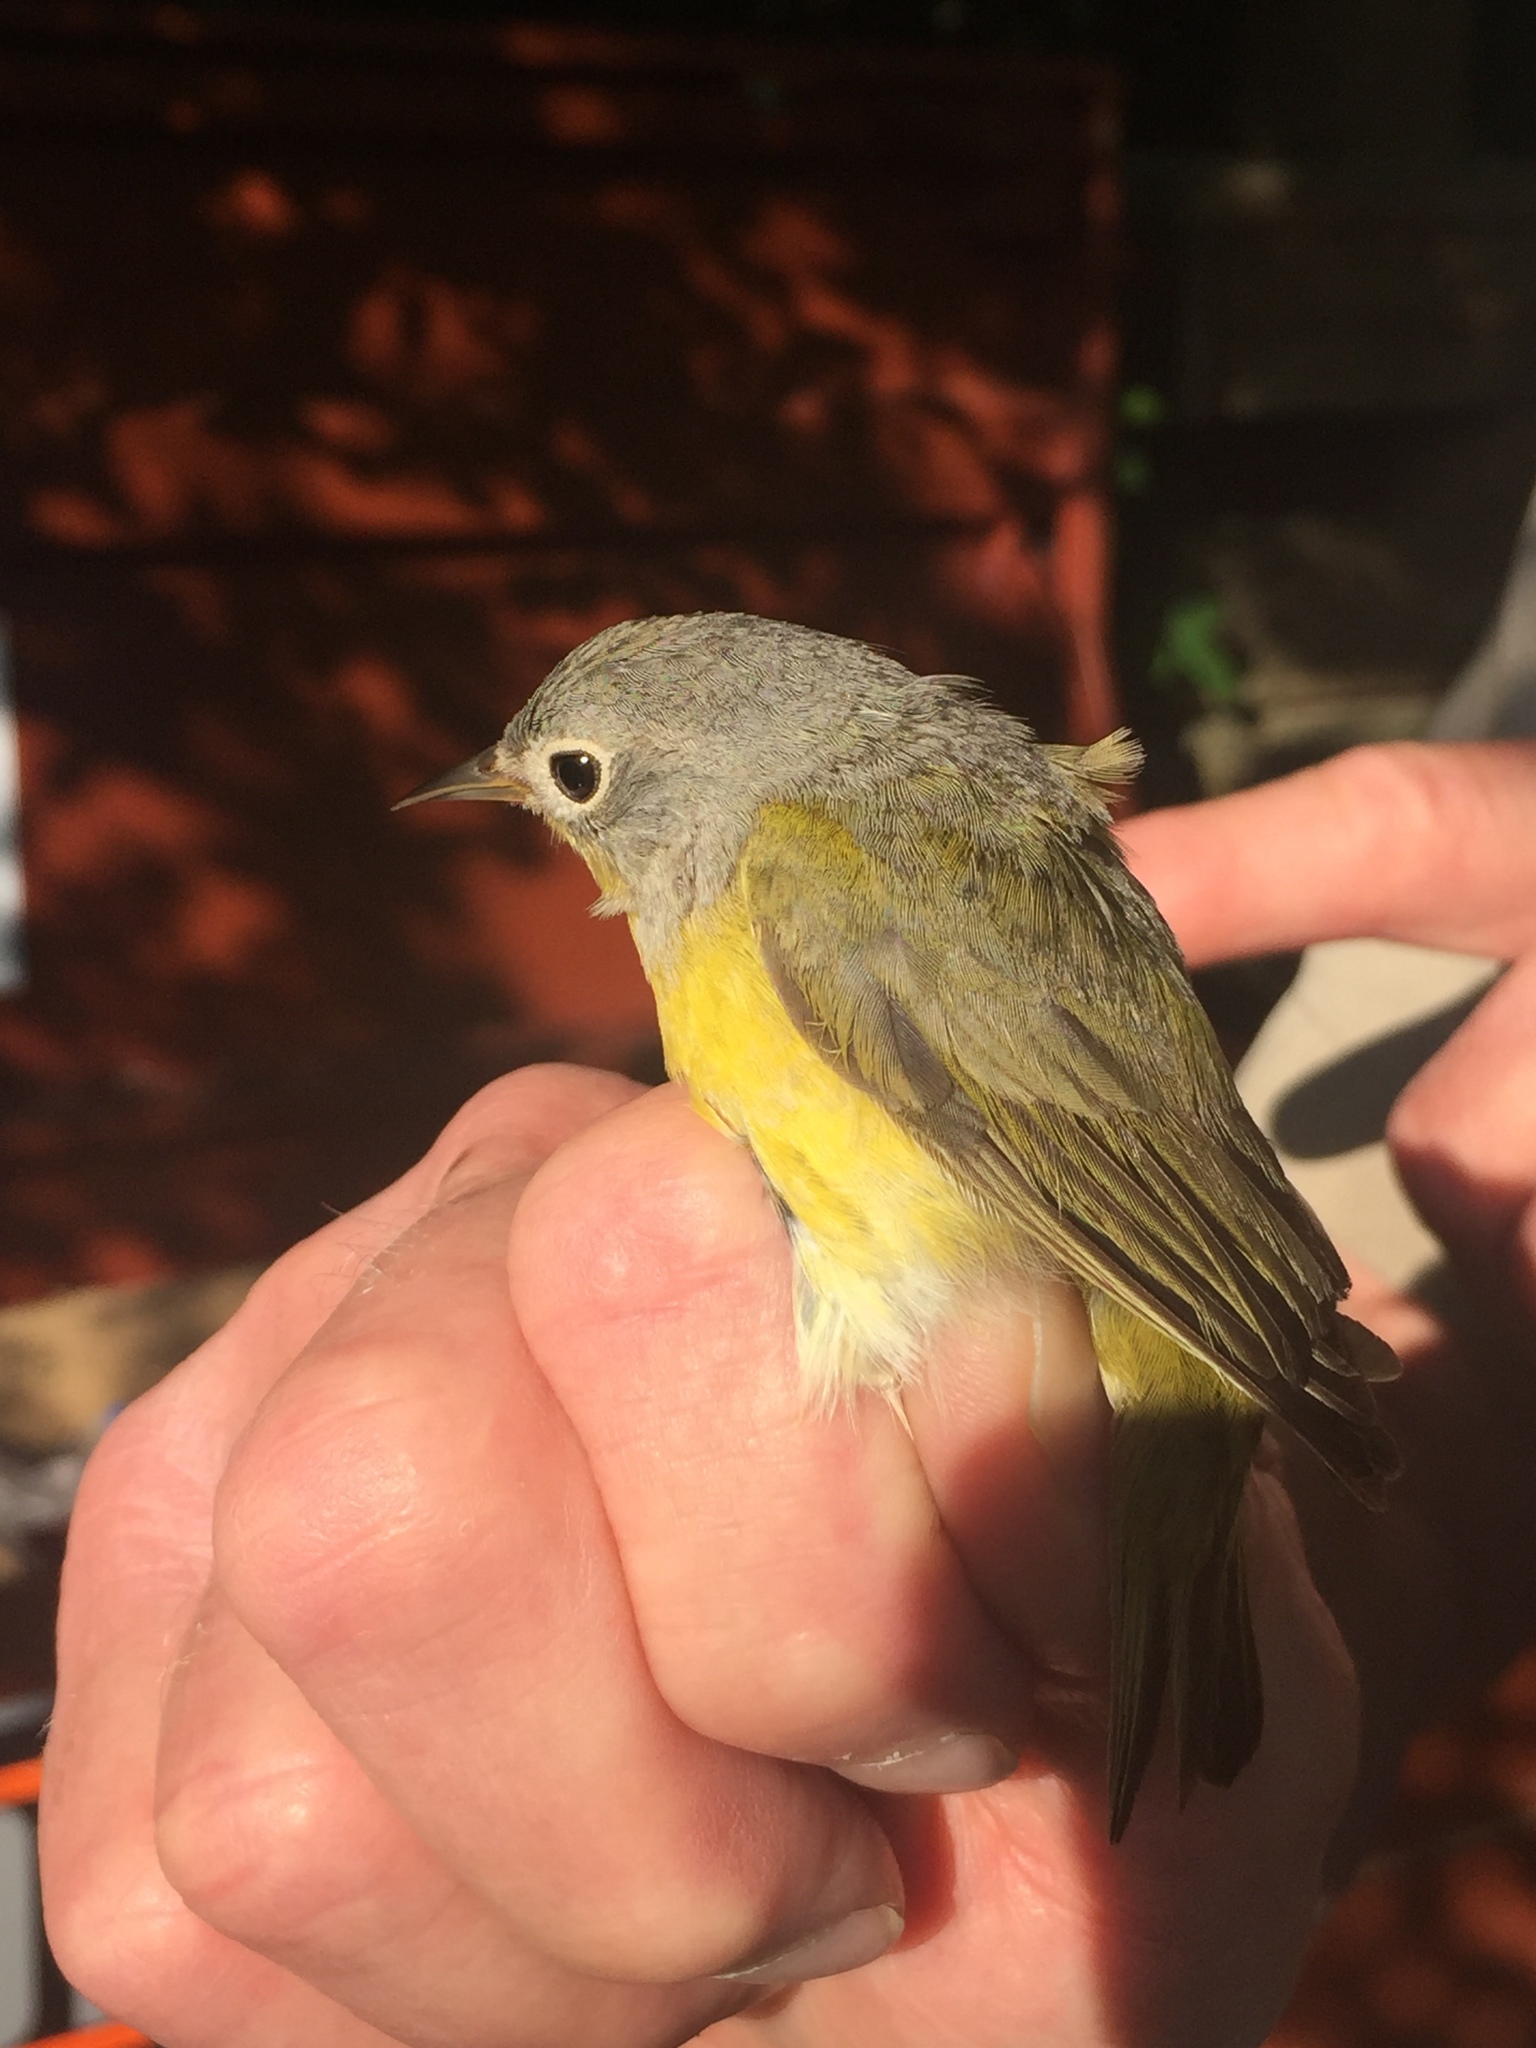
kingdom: Animalia
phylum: Chordata
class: Aves
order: Passeriformes
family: Parulidae
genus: Leiothlypis
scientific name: Leiothlypis ruficapilla
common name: Nashville warbler
